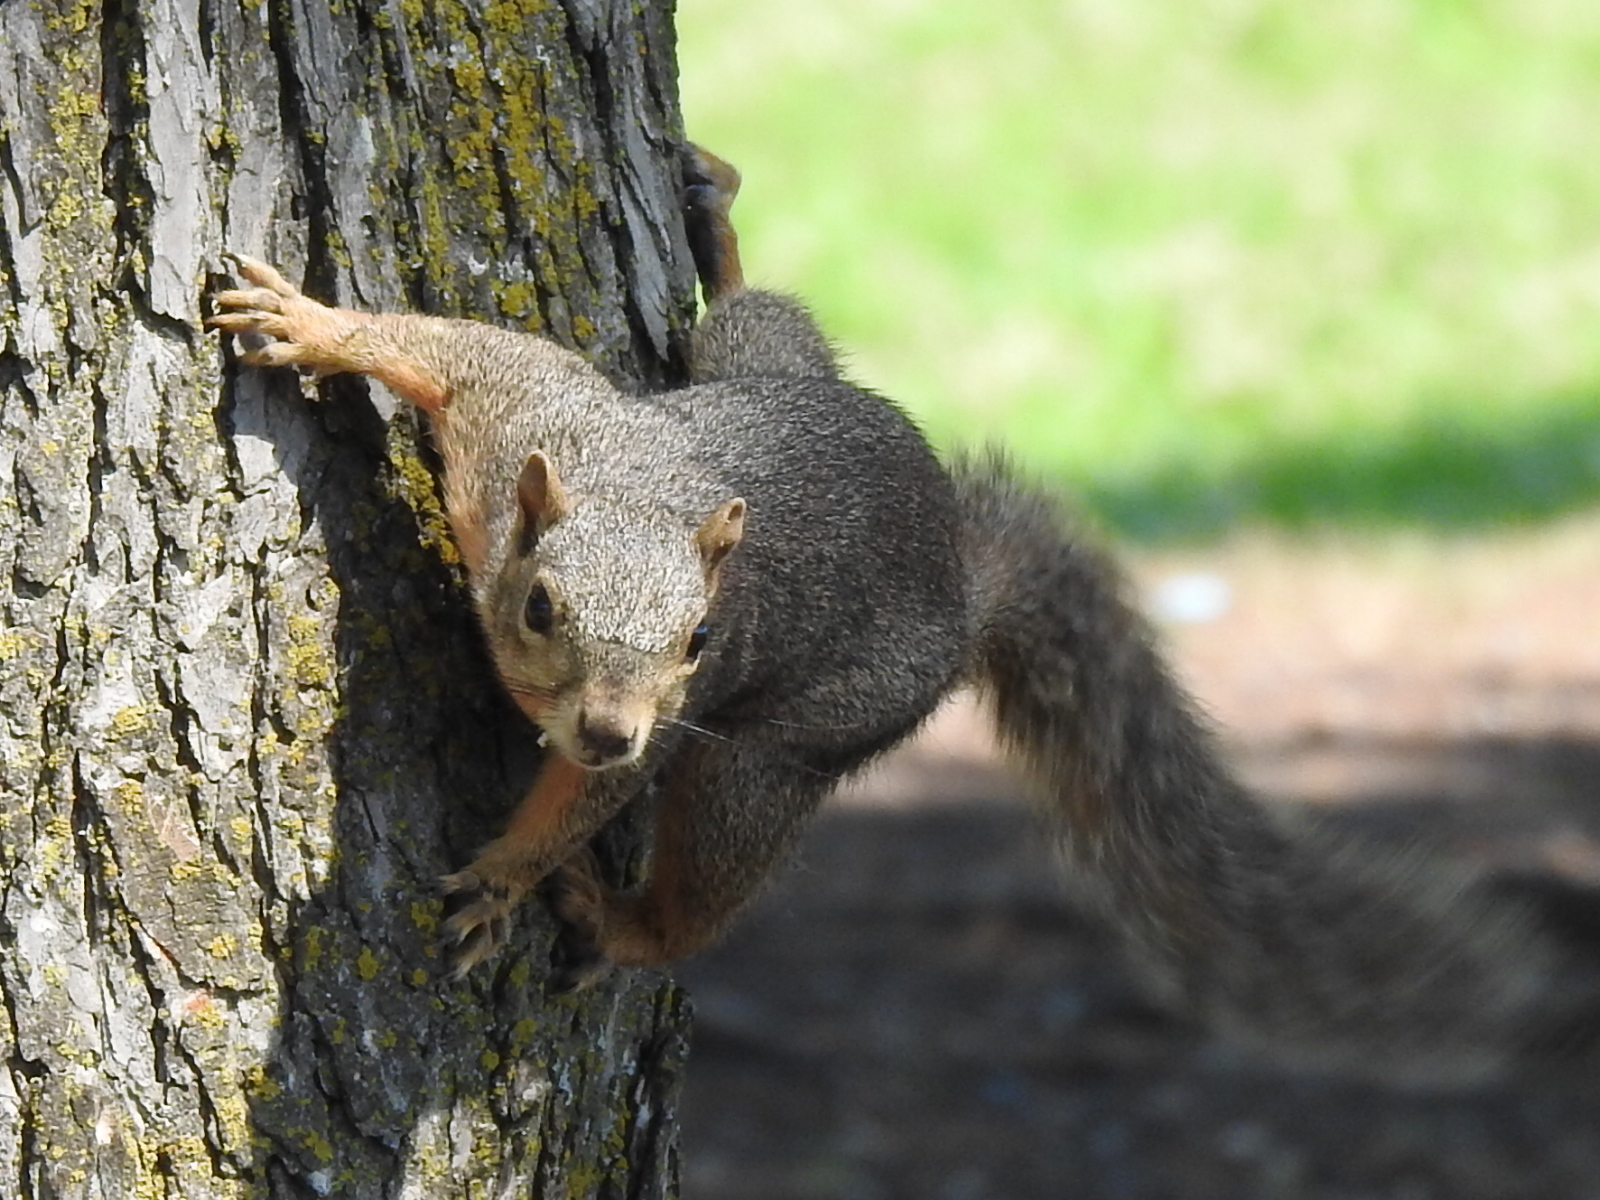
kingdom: Animalia
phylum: Chordata
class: Mammalia
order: Rodentia
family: Sciuridae
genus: Sciurus
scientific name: Sciurus niger
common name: Fox squirrel
